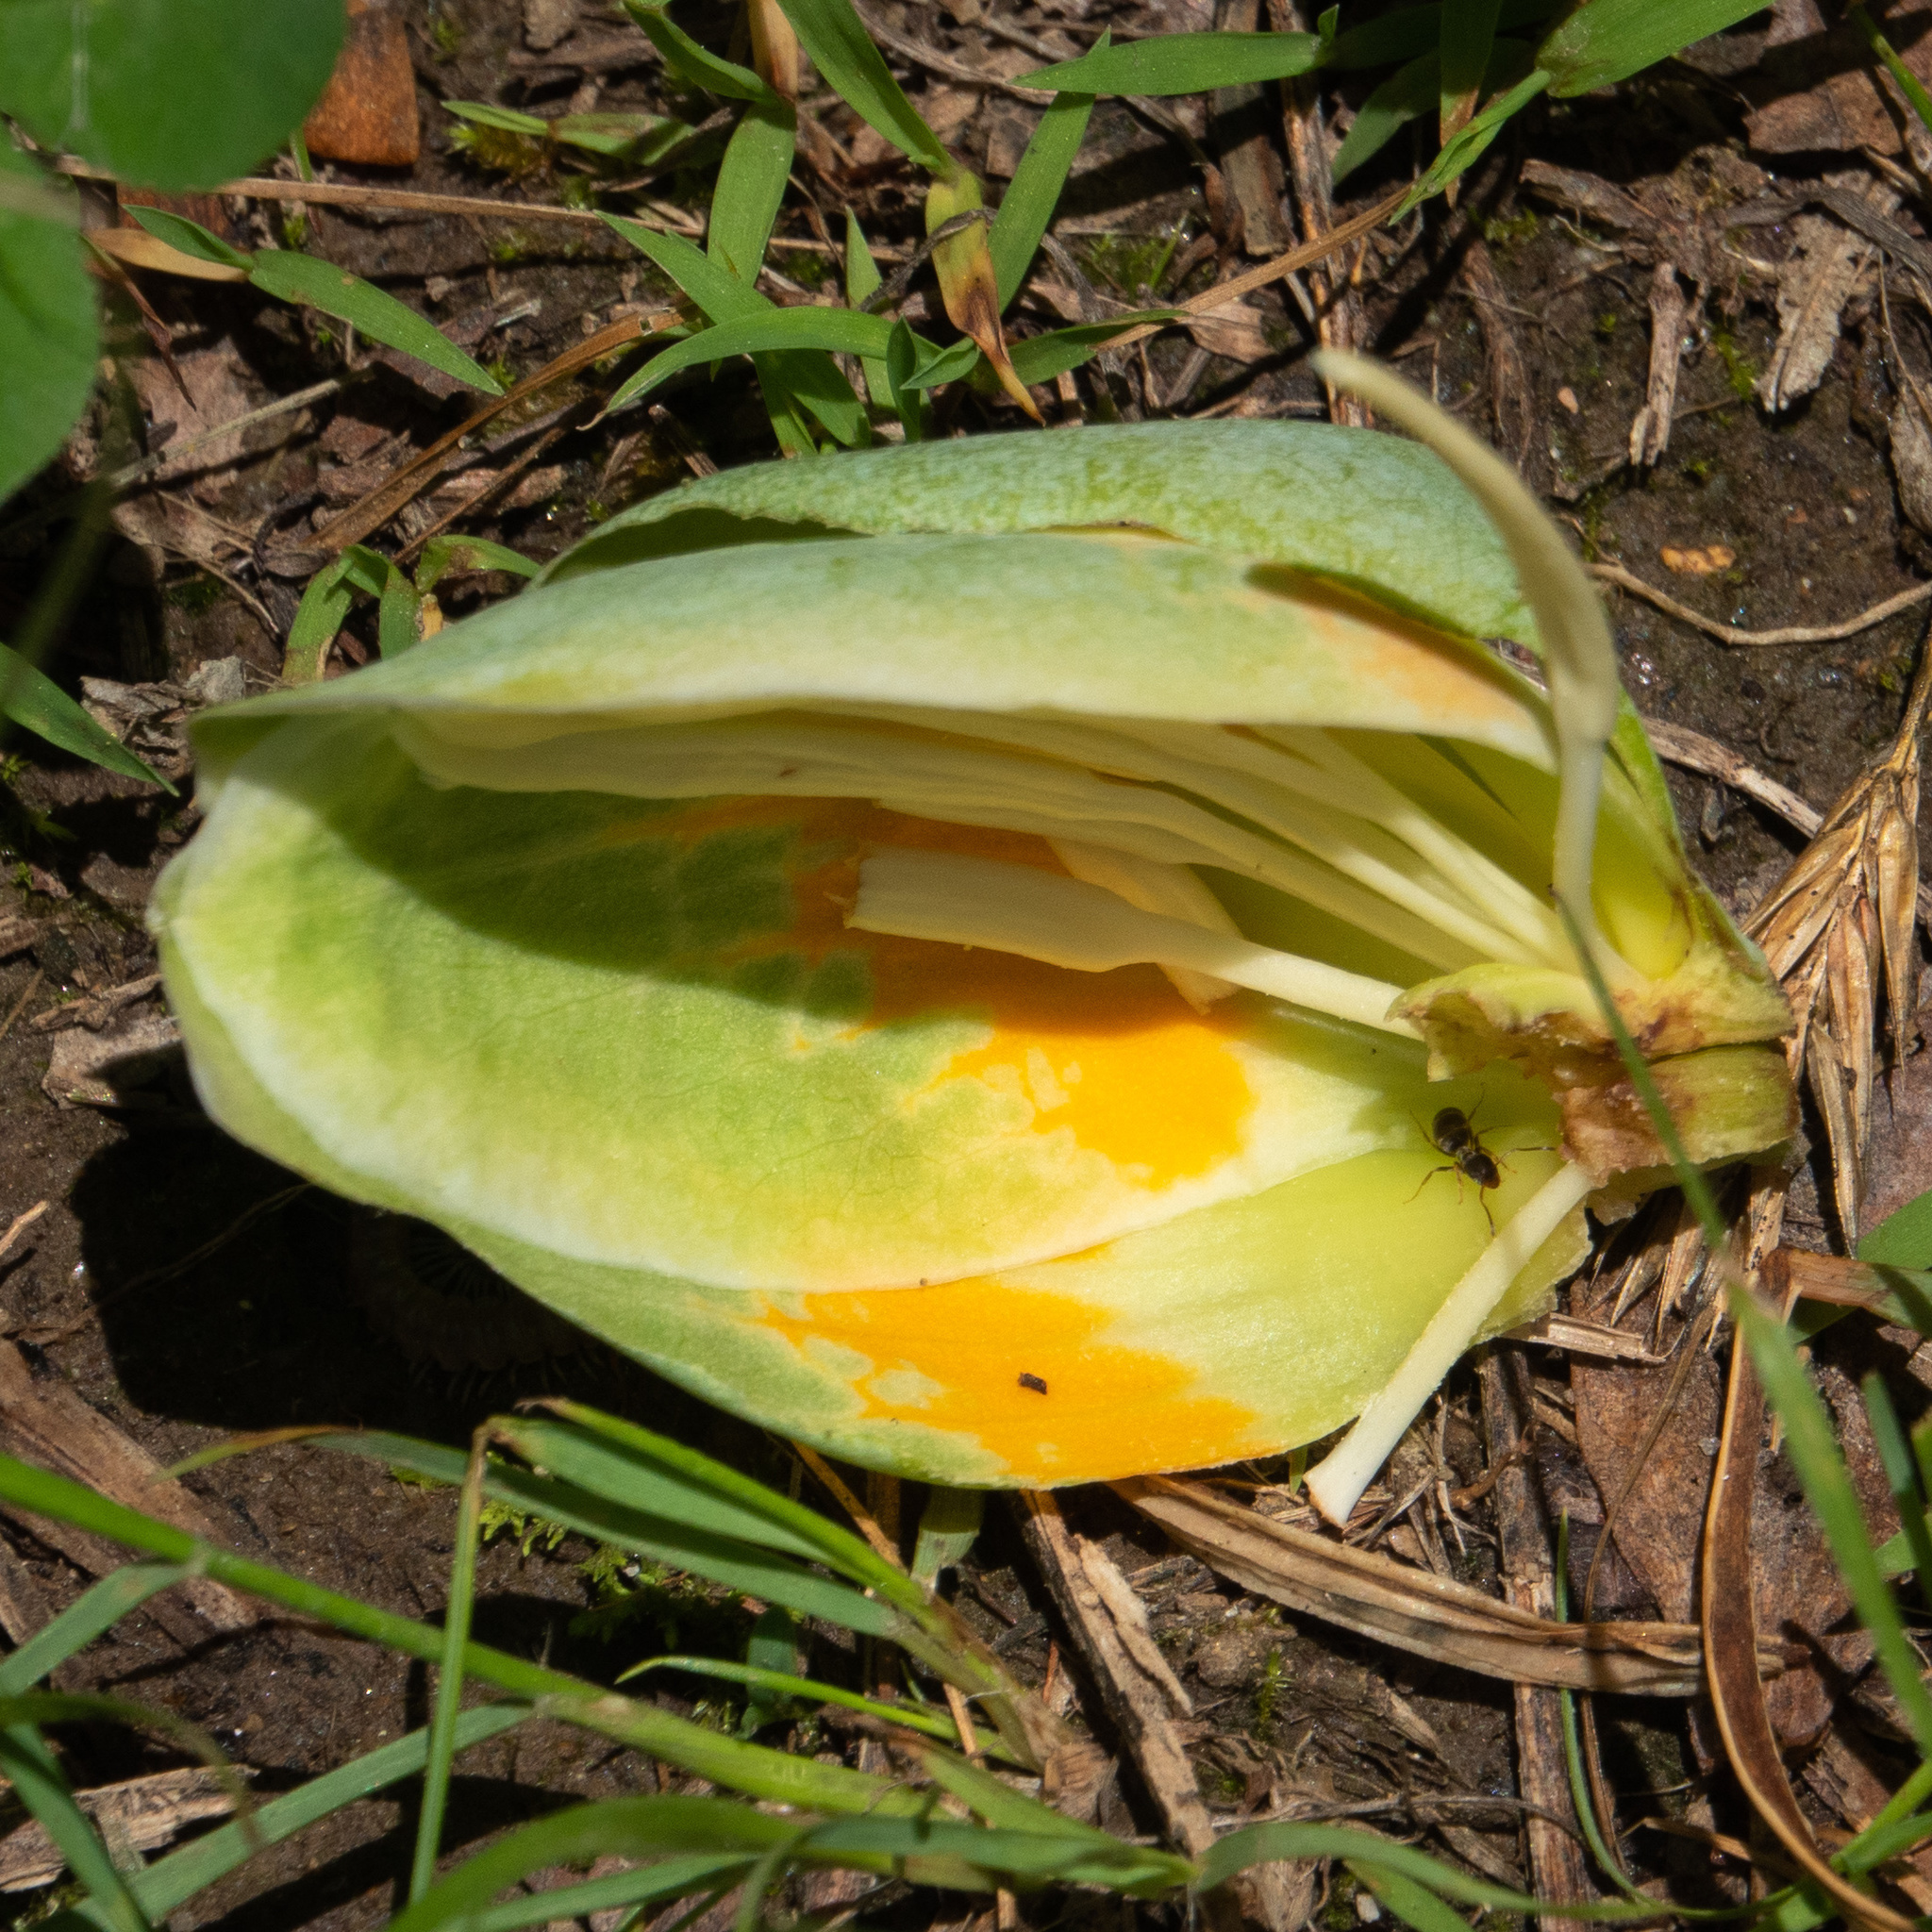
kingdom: Plantae
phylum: Tracheophyta
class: Magnoliopsida
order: Magnoliales
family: Magnoliaceae
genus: Liriodendron
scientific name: Liriodendron tulipifera
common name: Tulip tree
